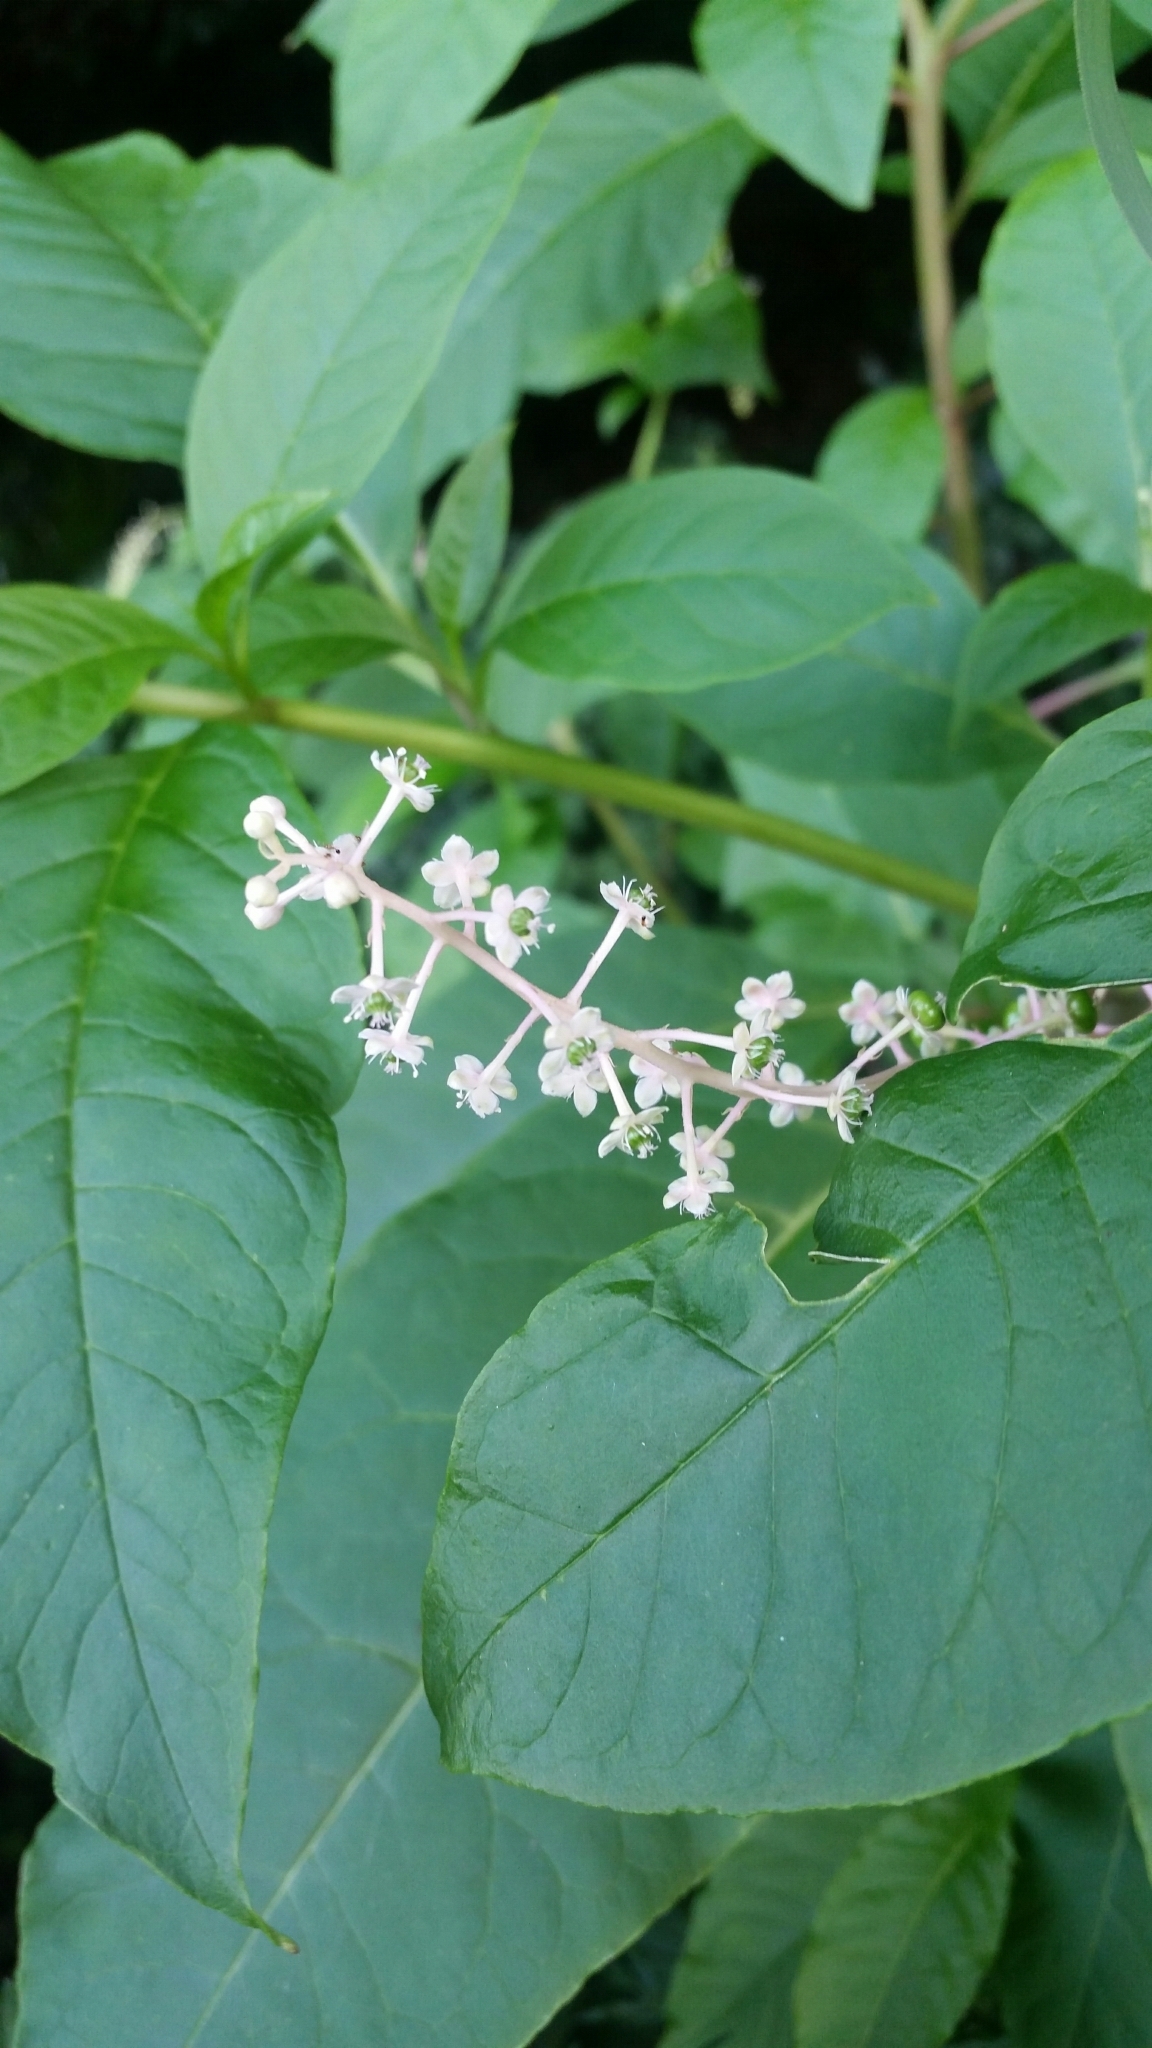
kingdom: Plantae
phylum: Tracheophyta
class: Magnoliopsida
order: Caryophyllales
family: Phytolaccaceae
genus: Phytolacca
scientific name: Phytolacca americana
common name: American pokeweed
